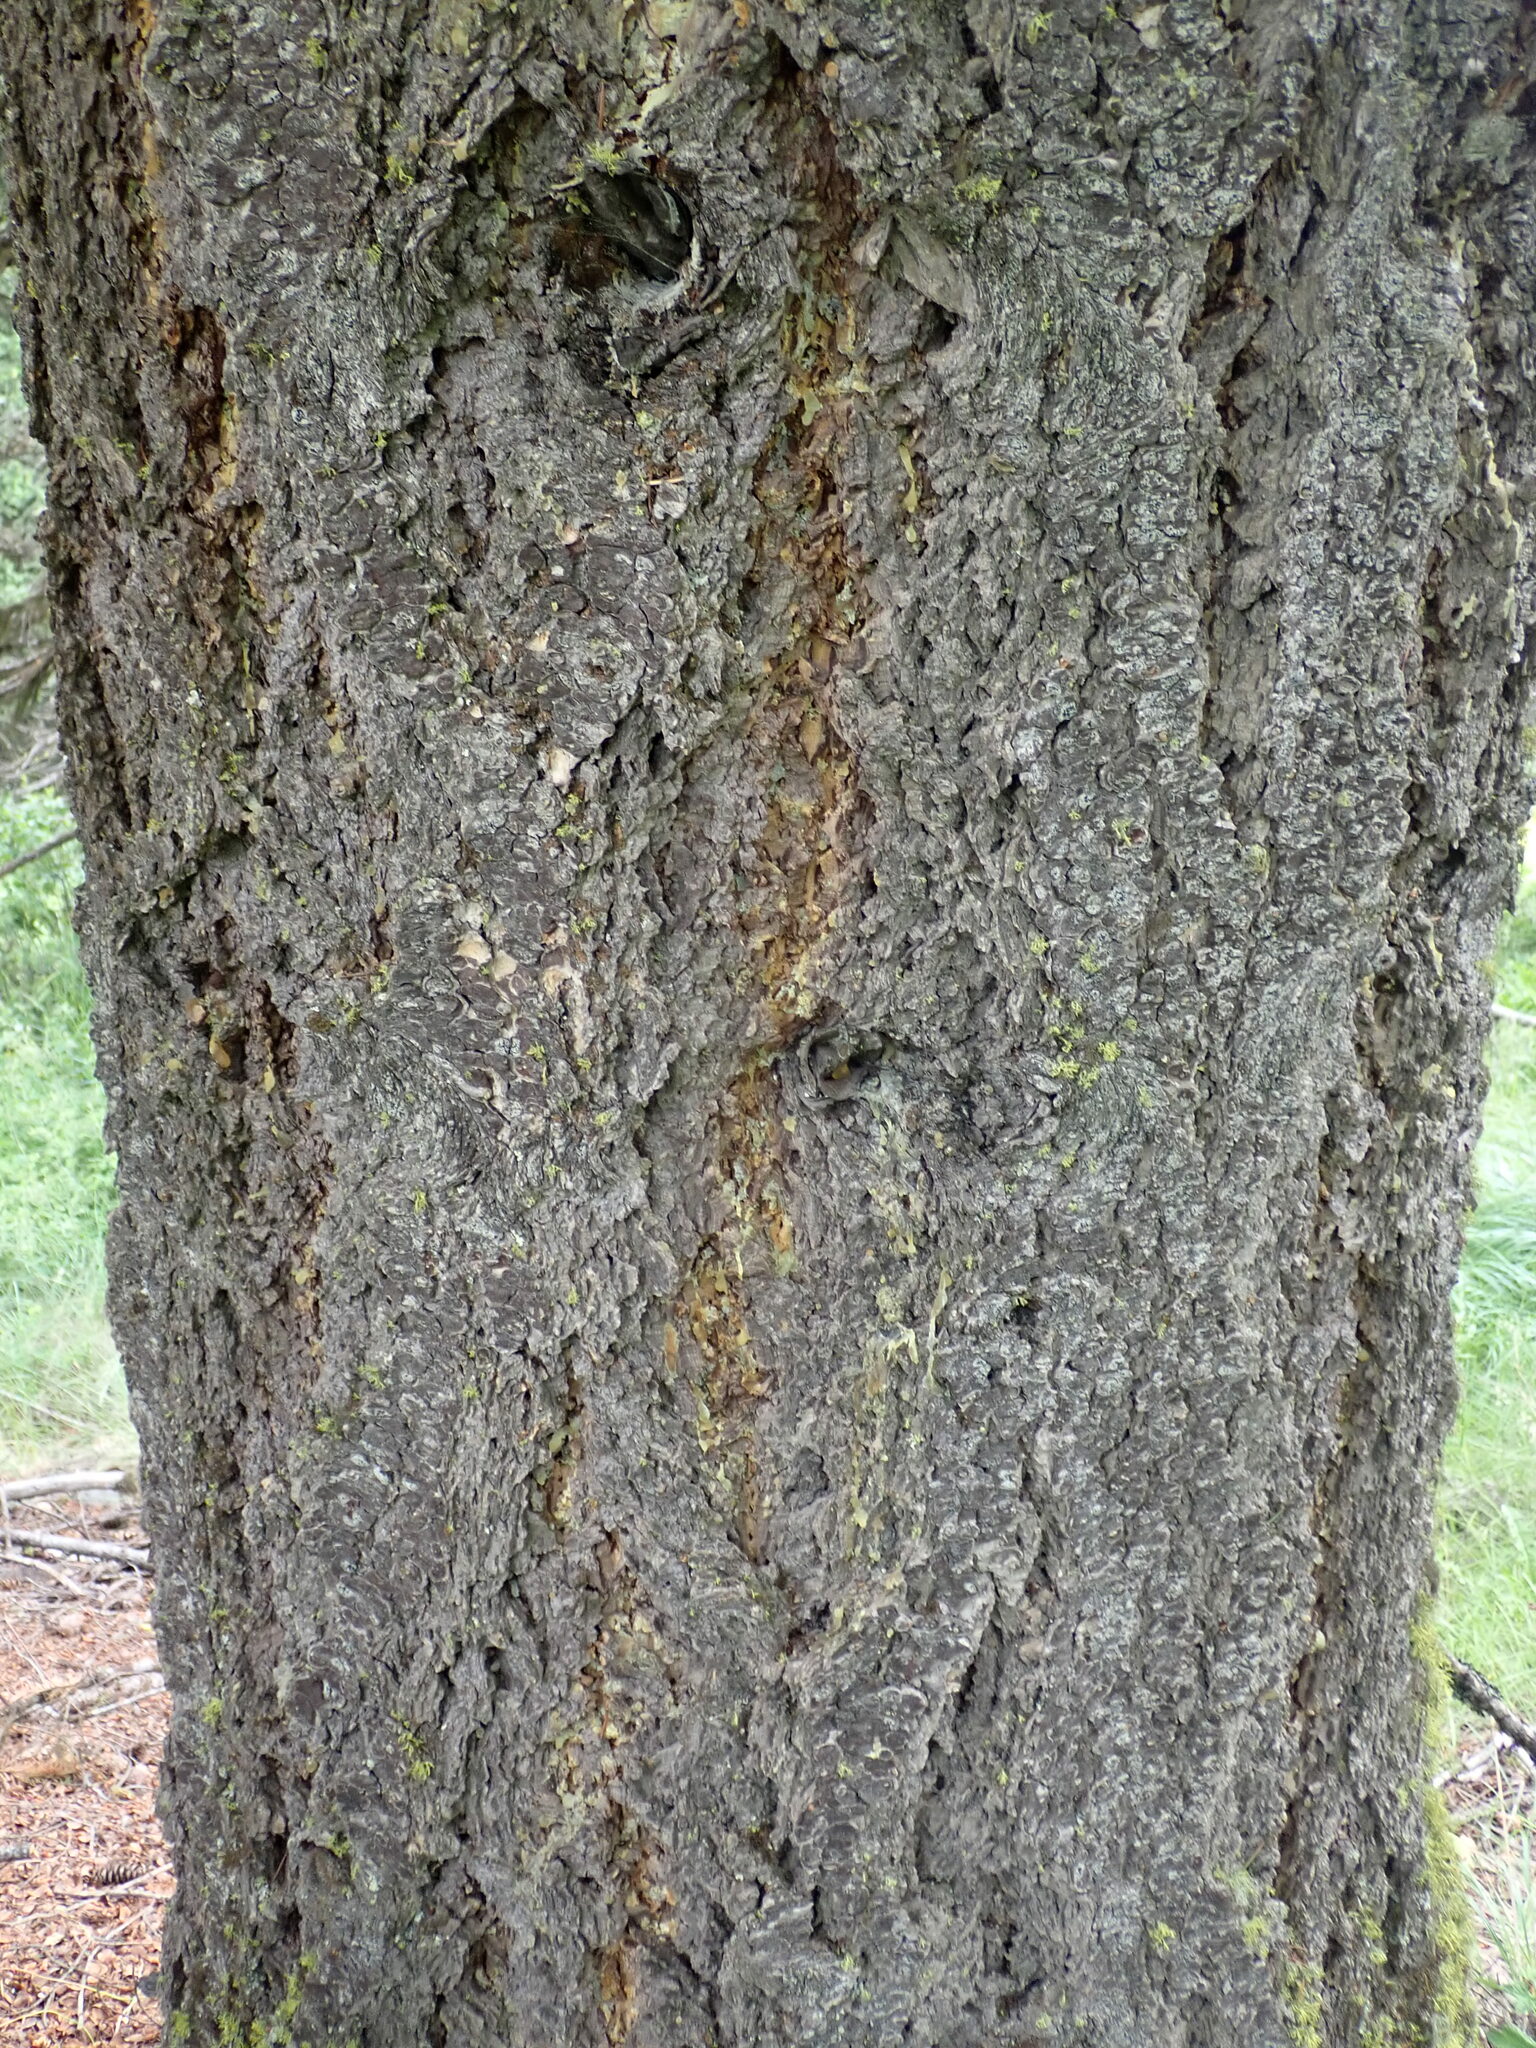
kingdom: Plantae
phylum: Tracheophyta
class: Pinopsida
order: Pinales
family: Pinaceae
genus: Pseudotsuga
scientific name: Pseudotsuga menziesii
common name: Douglas fir
